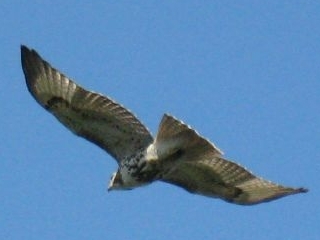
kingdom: Animalia
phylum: Chordata
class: Aves
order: Accipitriformes
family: Accipitridae
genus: Buteo
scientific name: Buteo jamaicensis
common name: Red-tailed hawk
